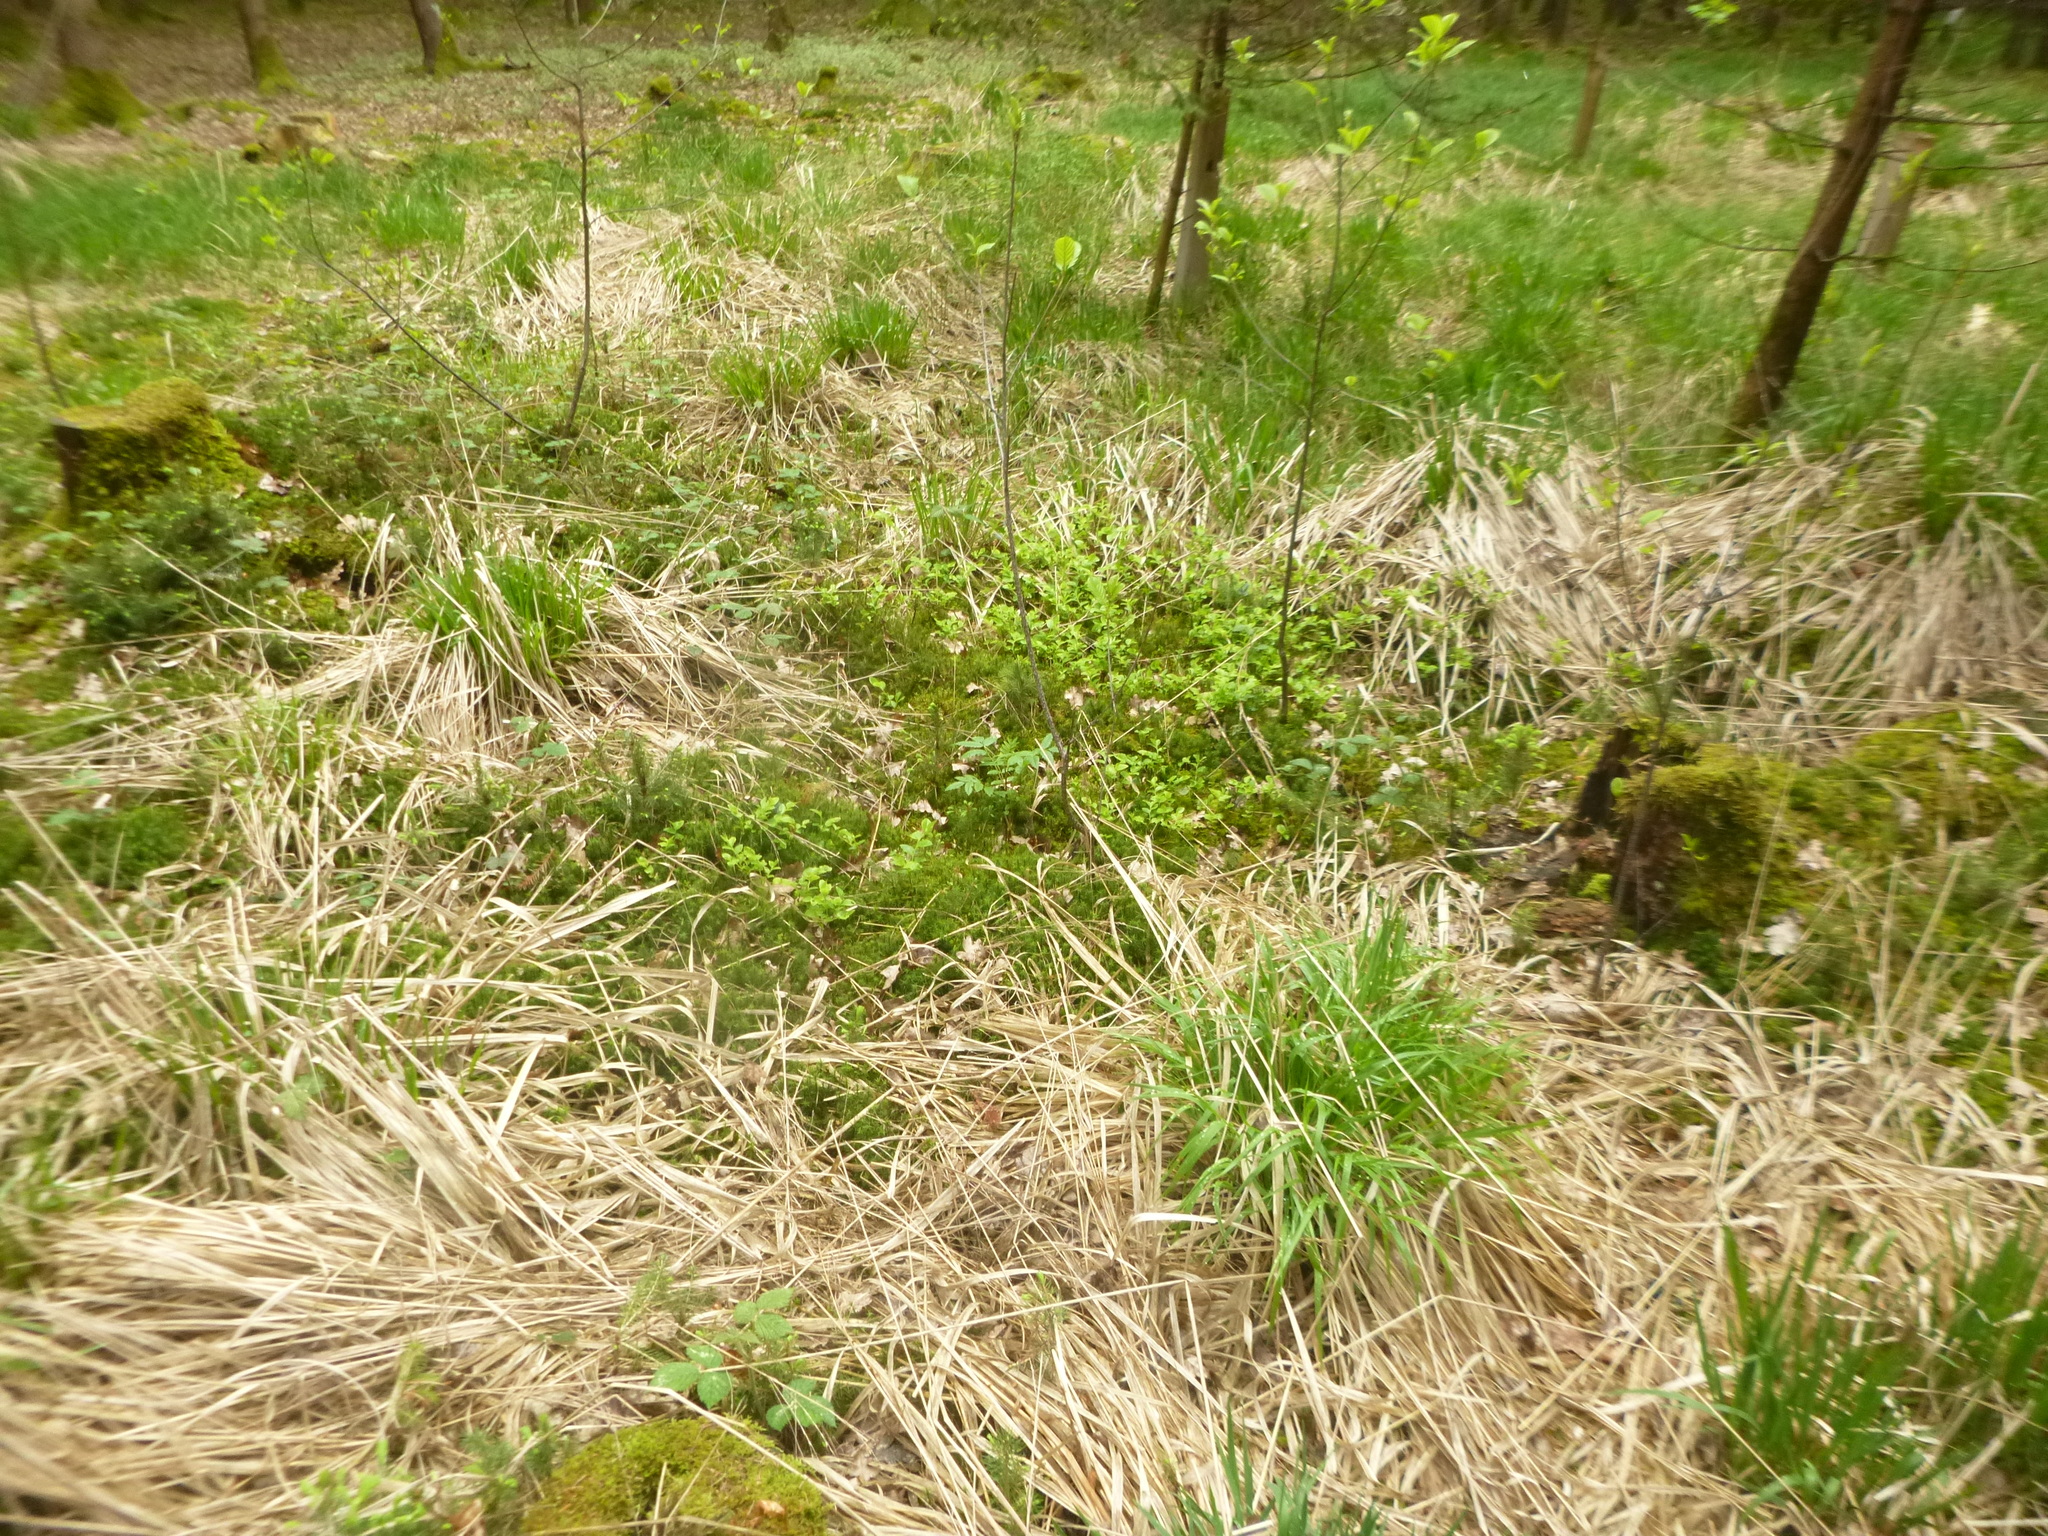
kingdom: Plantae
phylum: Tracheophyta
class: Magnoliopsida
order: Ericales
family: Ericaceae
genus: Vaccinium
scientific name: Vaccinium myrtillus
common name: Bilberry
